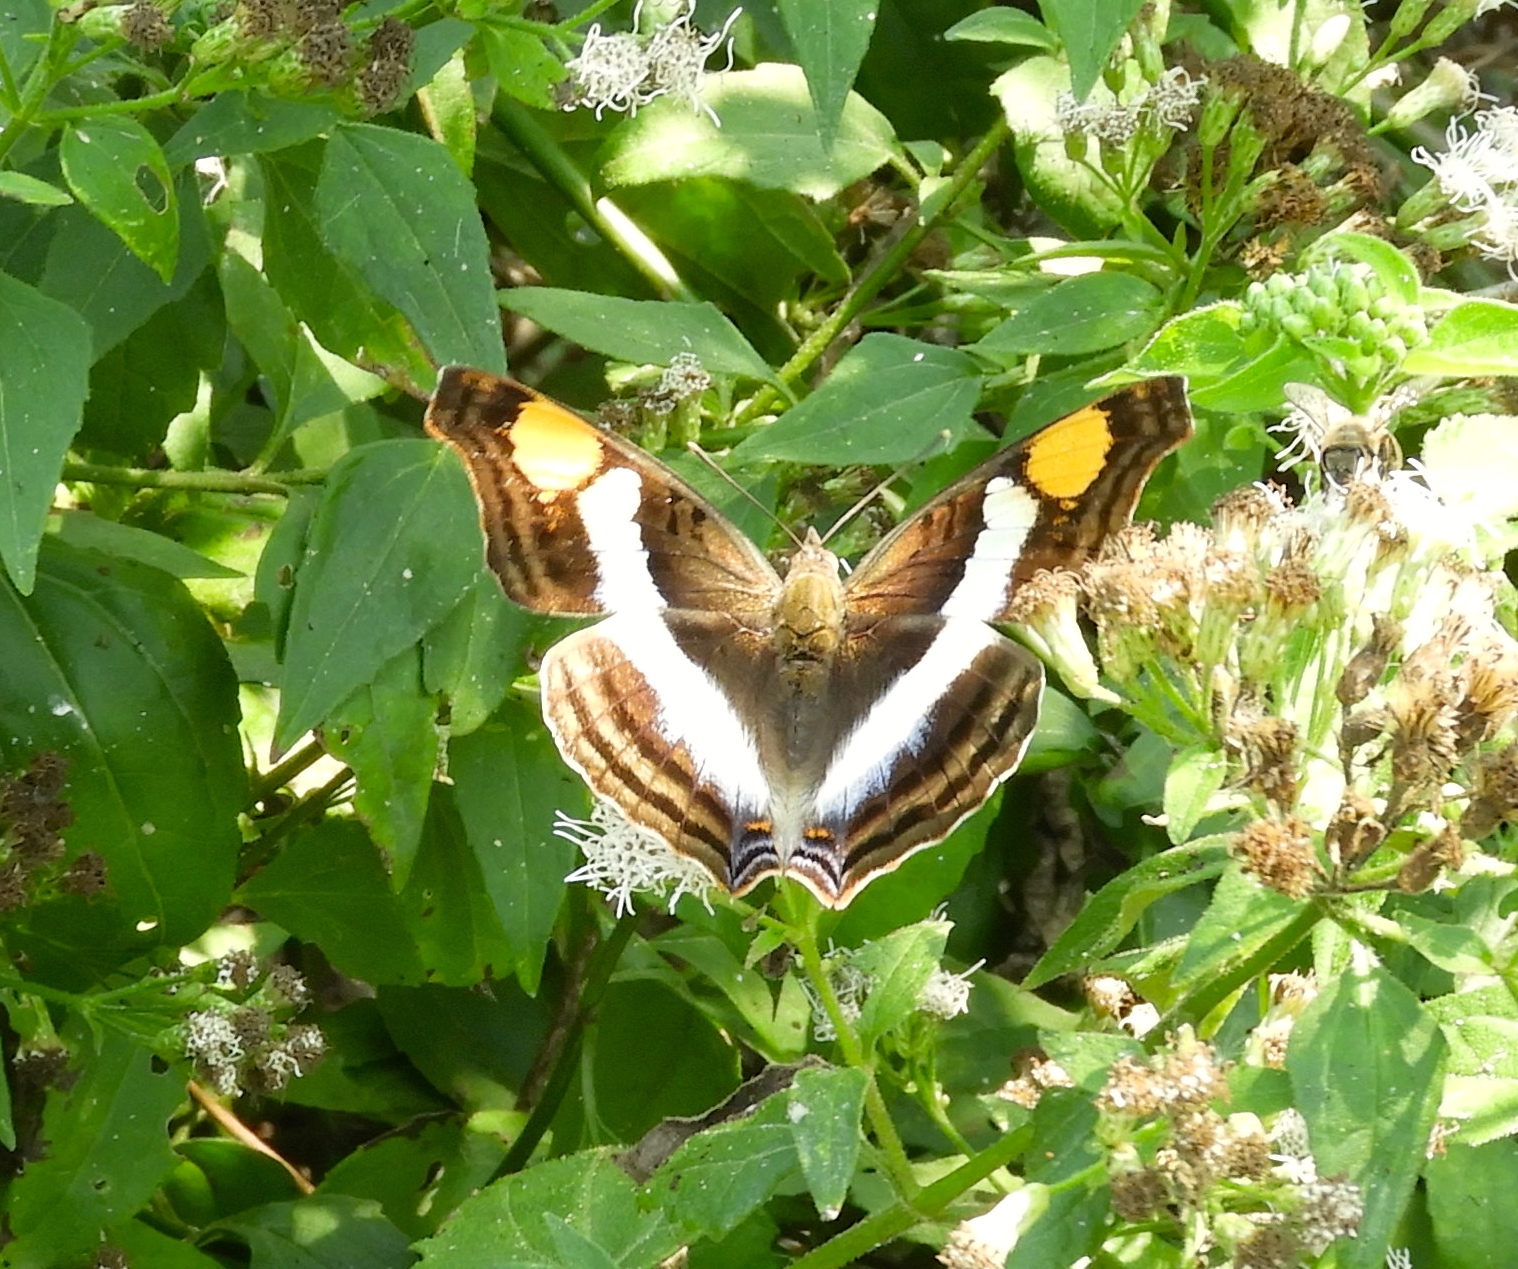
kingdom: Animalia
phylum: Arthropoda
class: Insecta
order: Lepidoptera
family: Nymphalidae
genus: Doxocopa
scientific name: Doxocopa laure
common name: Silver emperor
